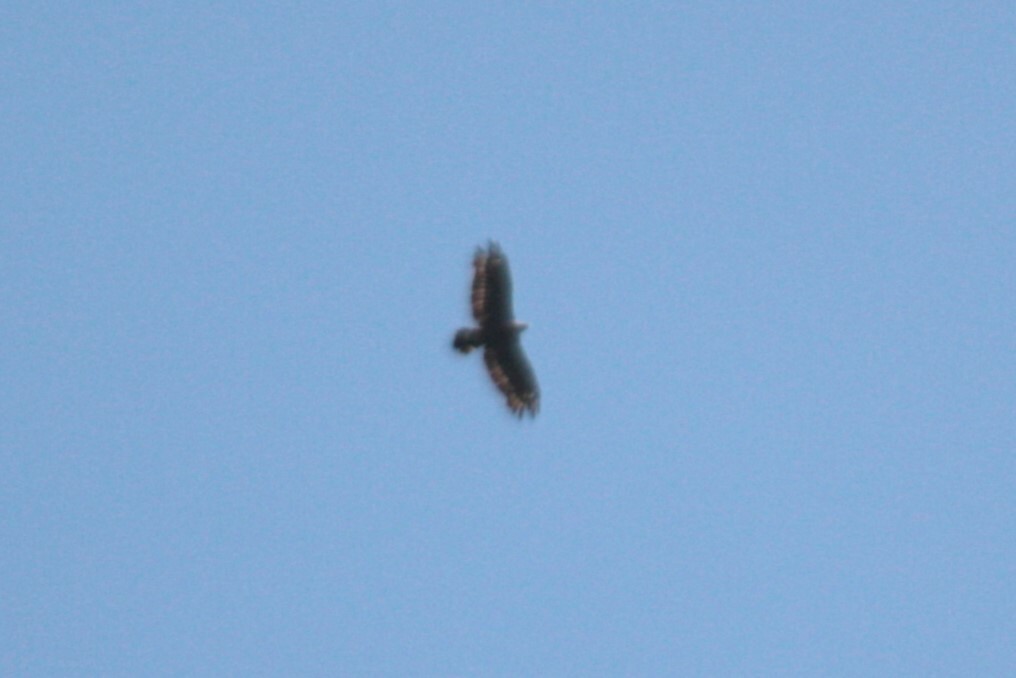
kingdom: Animalia
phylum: Chordata
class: Aves
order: Accipitriformes
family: Accipitridae
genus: Spilornis
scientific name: Spilornis cheela
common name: Crested serpent eagle
